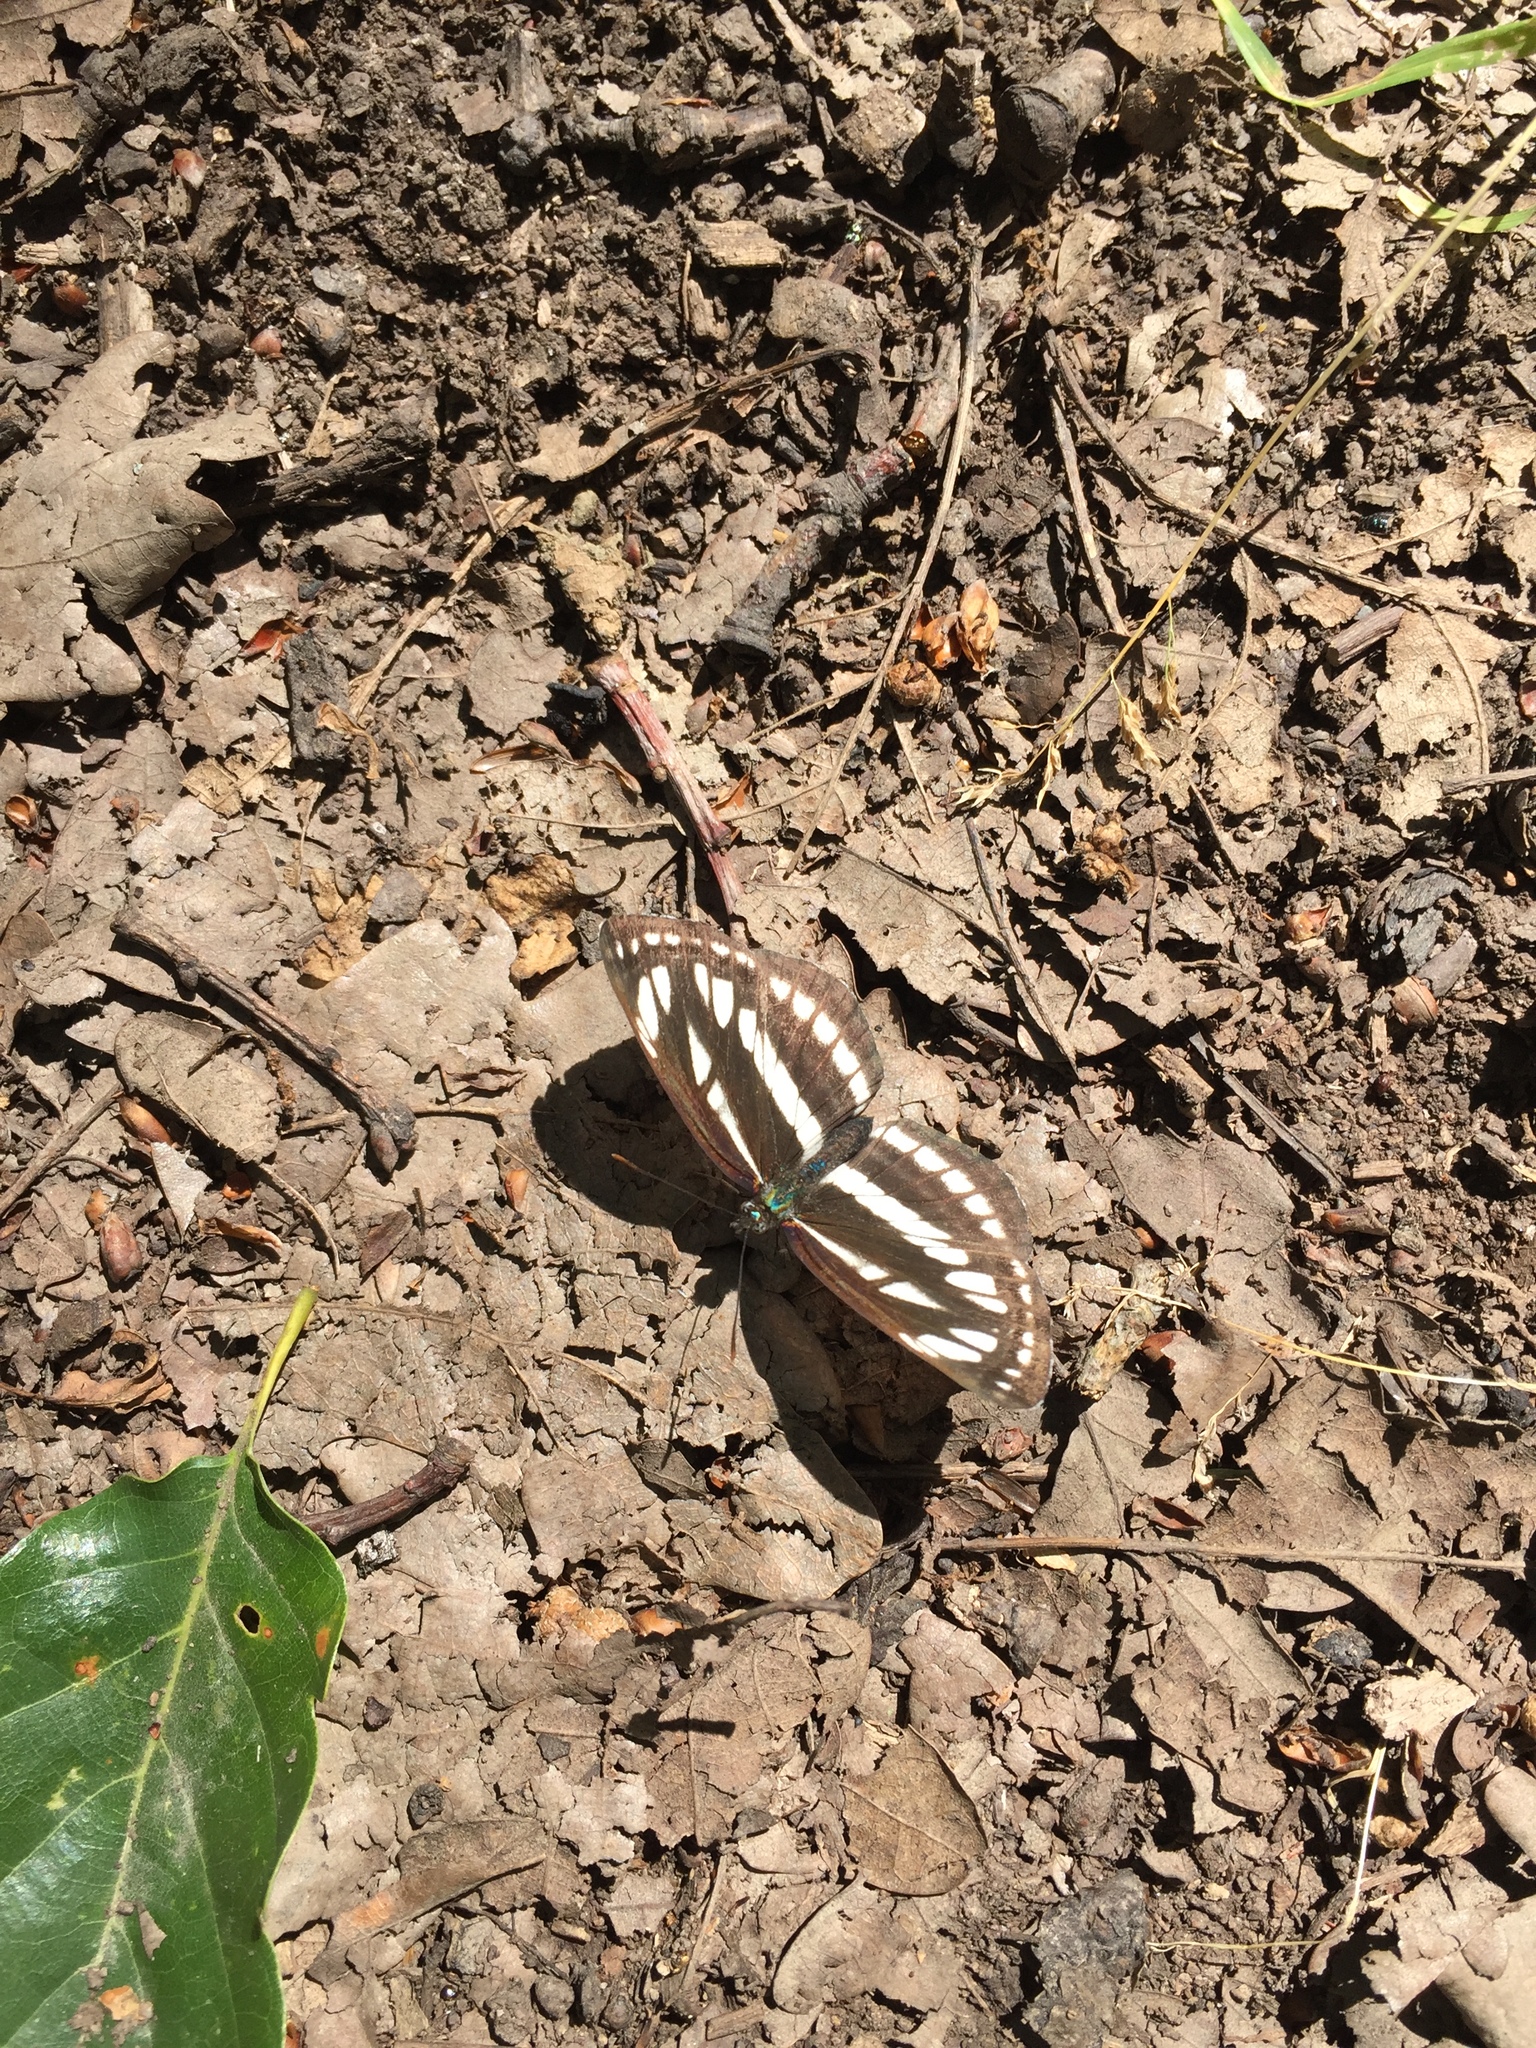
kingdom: Animalia
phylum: Arthropoda
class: Insecta
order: Lepidoptera
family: Nymphalidae
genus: Neptis
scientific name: Neptis sappho
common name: Common glider
